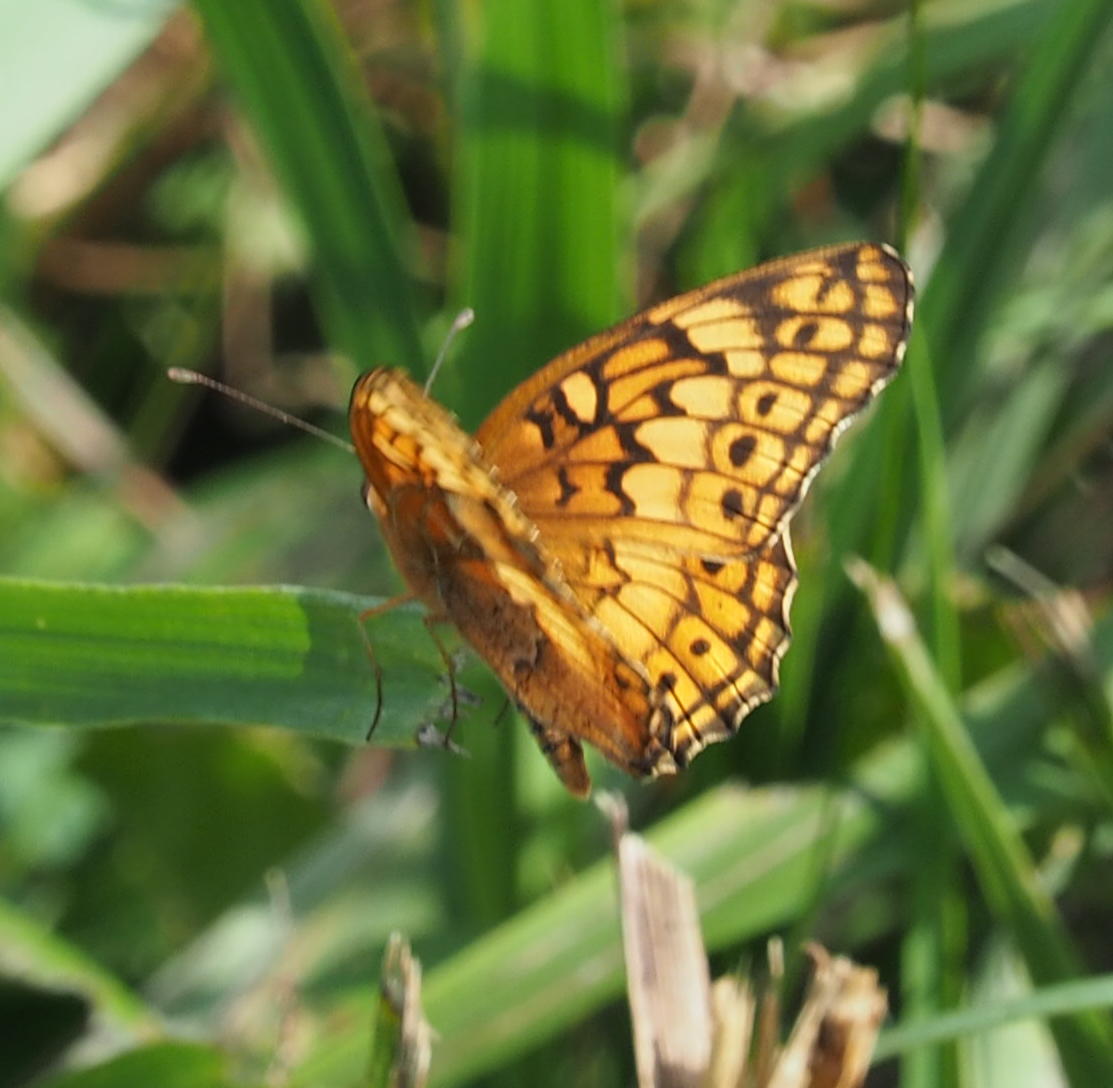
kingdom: Animalia
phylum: Arthropoda
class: Insecta
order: Lepidoptera
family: Nymphalidae
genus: Euptoieta
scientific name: Euptoieta claudia
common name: Variegated fritillary
